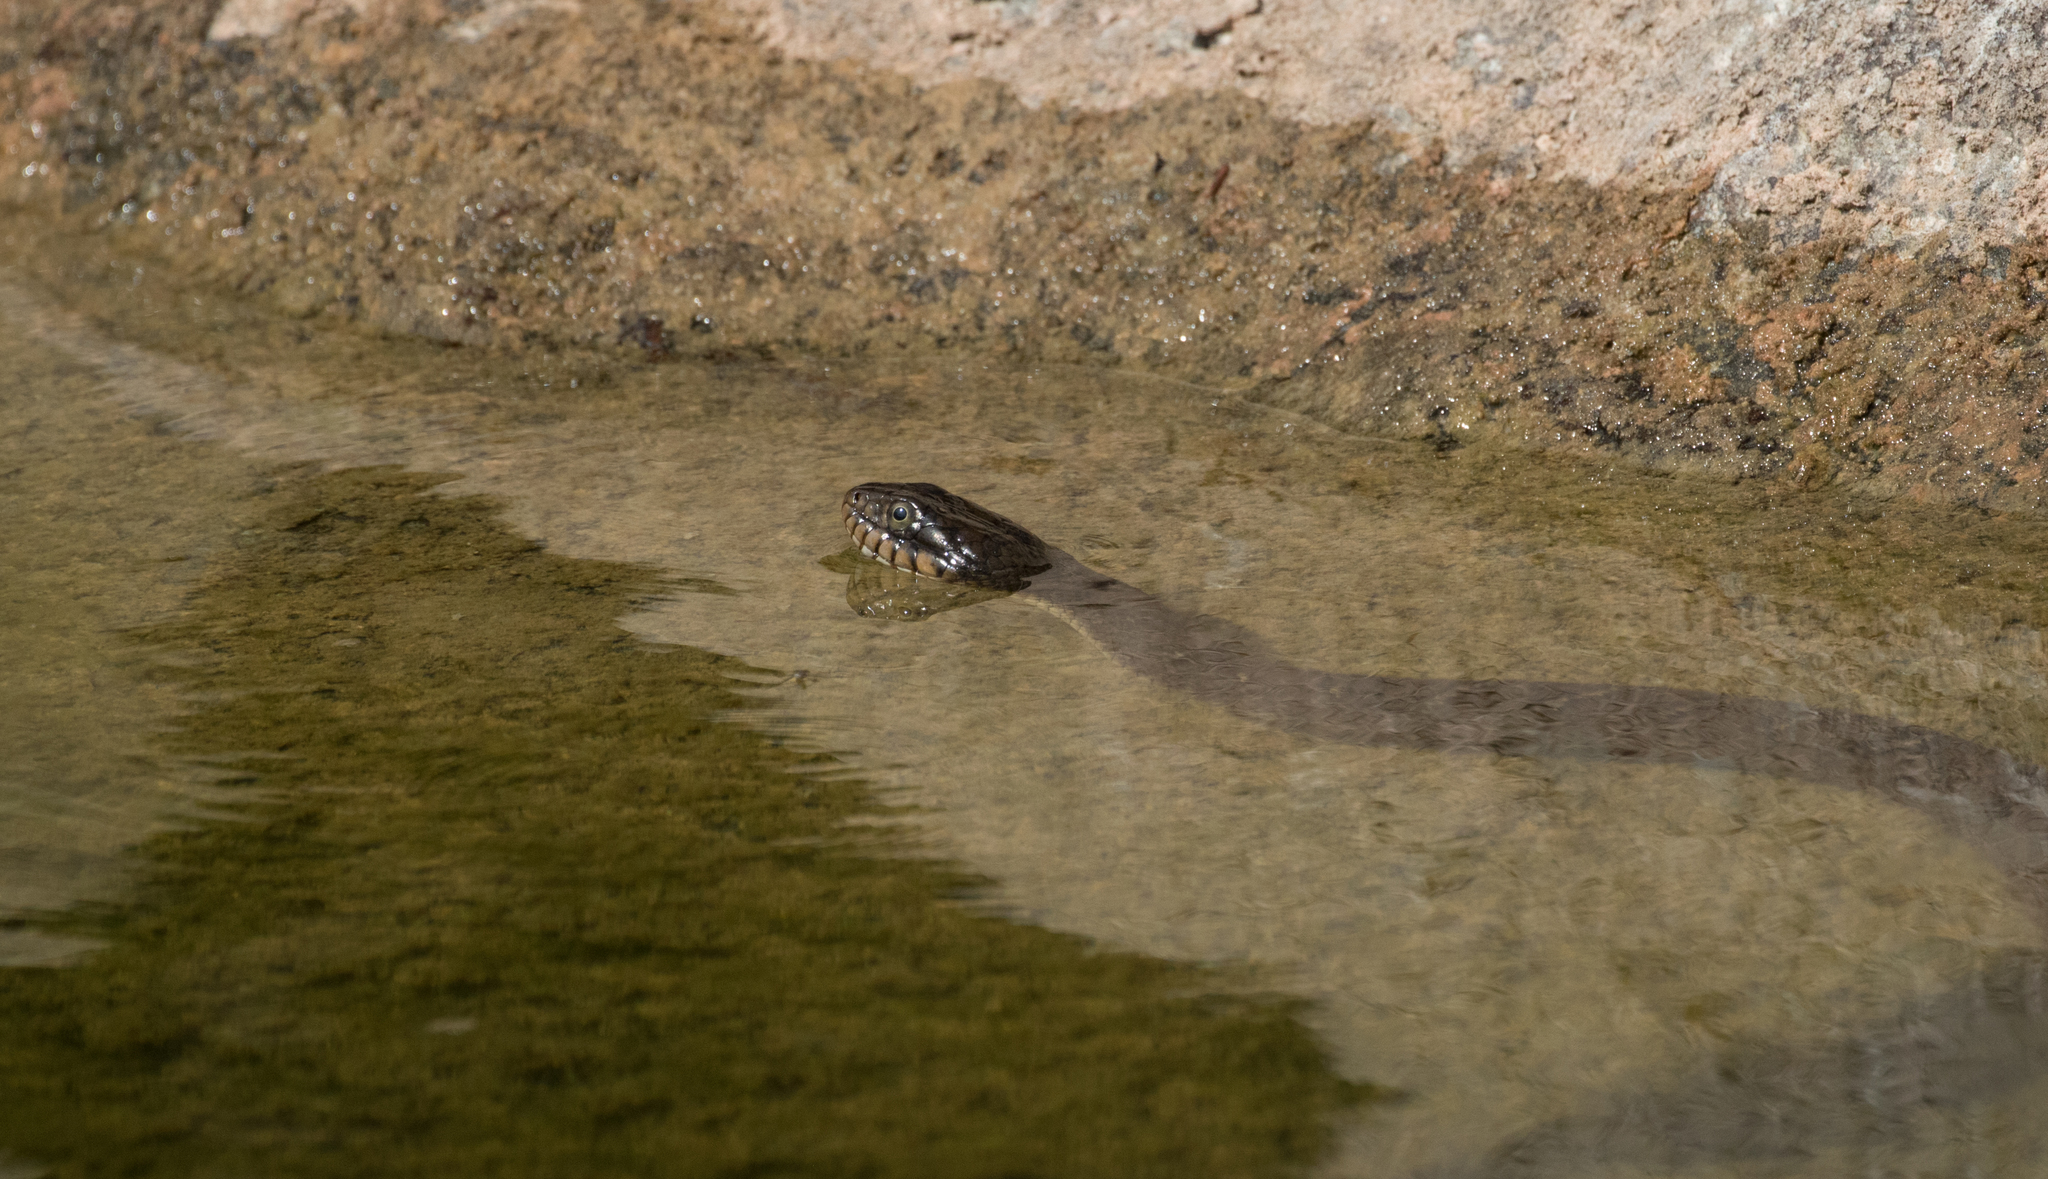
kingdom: Animalia
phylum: Chordata
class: Squamata
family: Colubridae
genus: Nerodia
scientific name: Nerodia erythrogaster
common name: Plainbelly water snake
